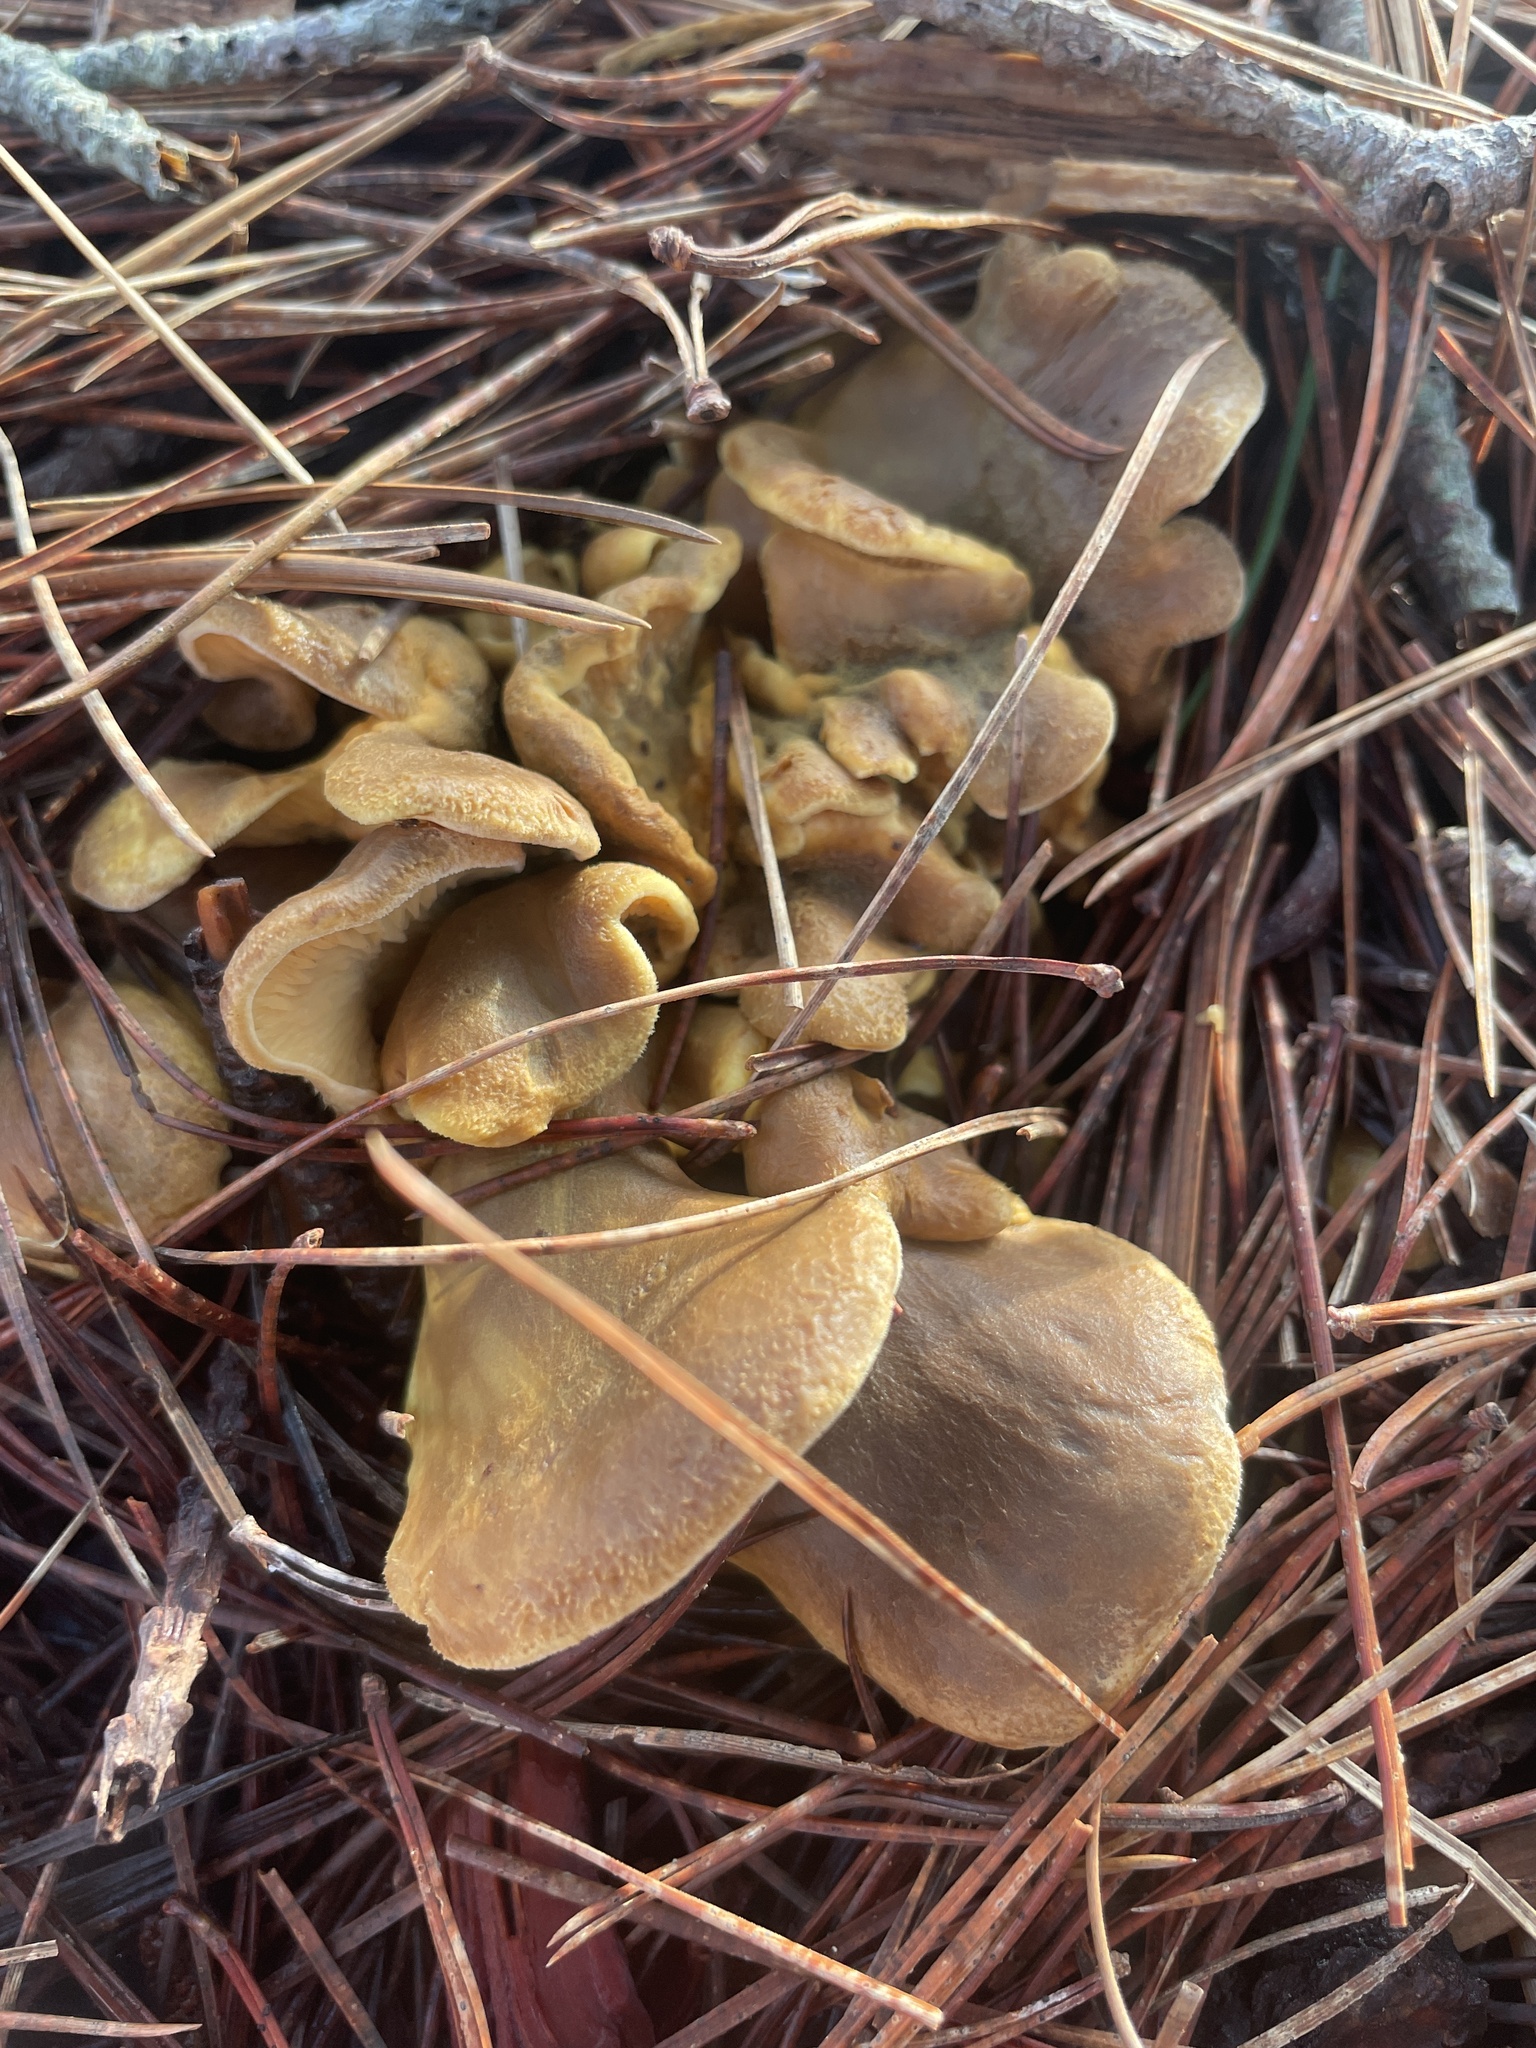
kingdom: Fungi
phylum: Basidiomycota
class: Agaricomycetes
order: Boletales
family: Tapinellaceae
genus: Tapinella
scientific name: Tapinella panuoides
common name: Oyster rollrim
